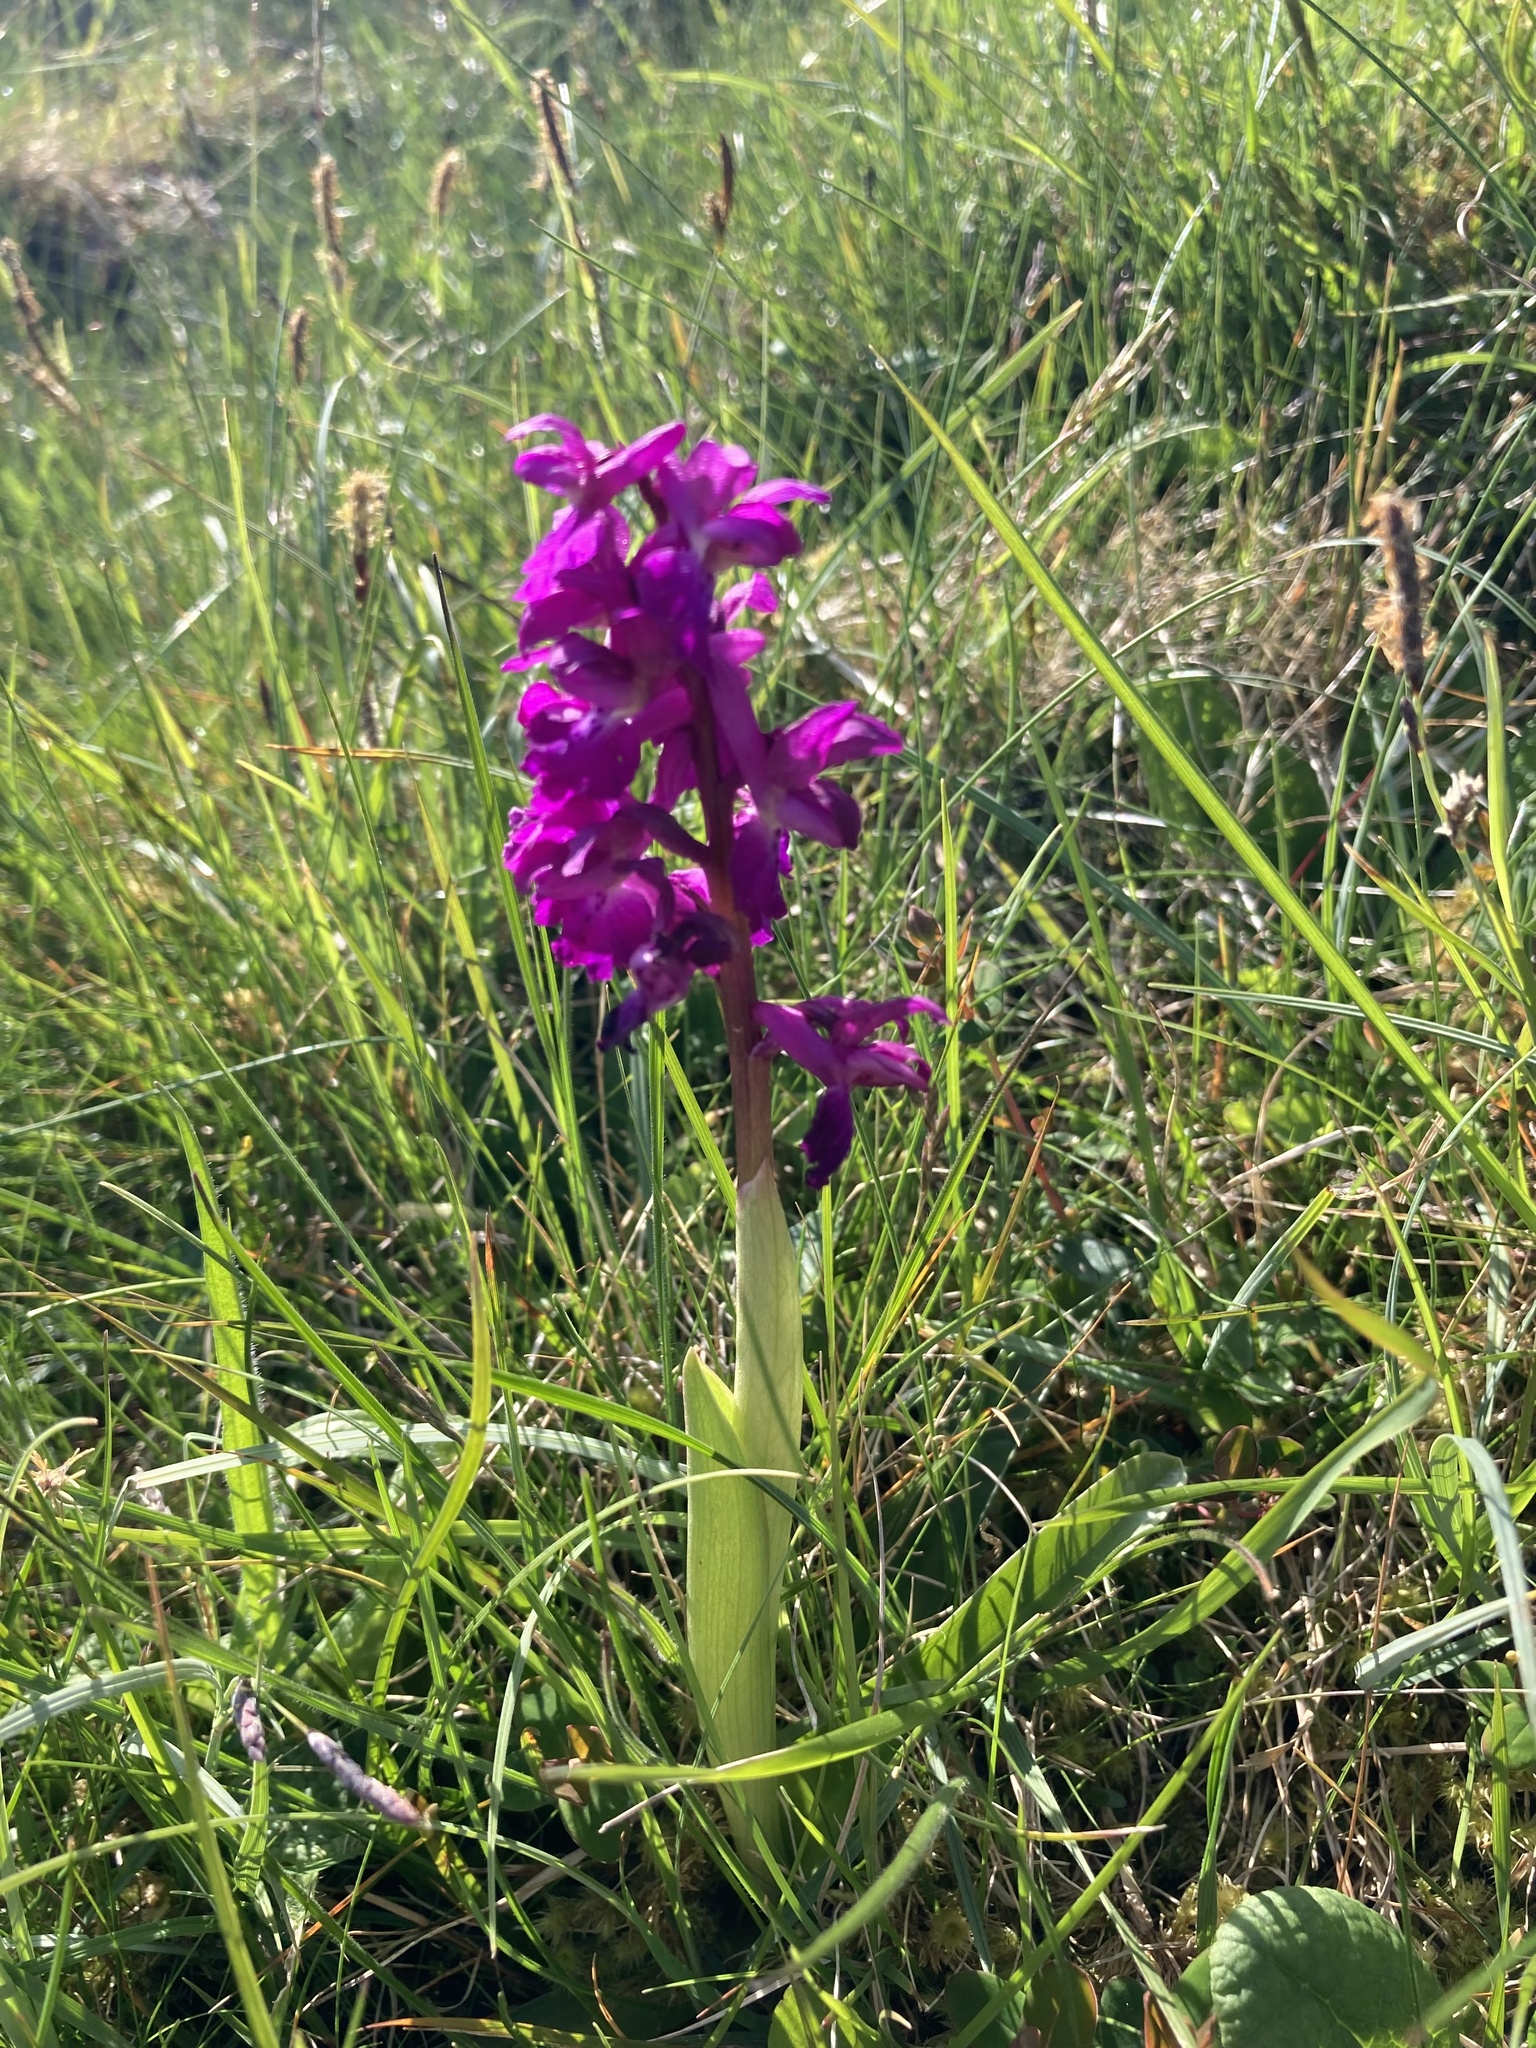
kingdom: Plantae
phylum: Tracheophyta
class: Liliopsida
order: Asparagales
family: Orchidaceae
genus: Orchis
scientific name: Orchis mascula
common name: Early-purple orchid
